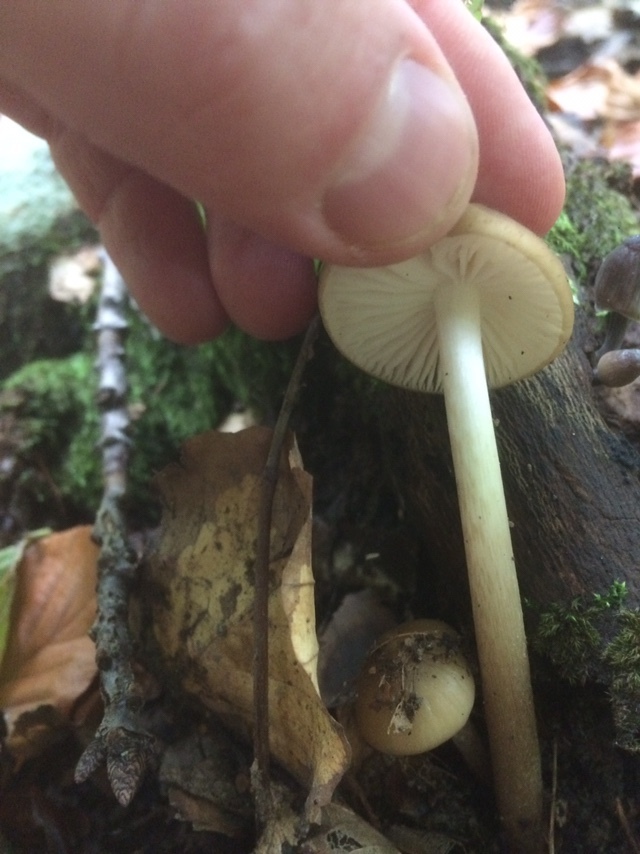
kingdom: Fungi
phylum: Basidiomycota
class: Agaricomycetes
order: Agaricales
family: Physalacriaceae
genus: Hymenopellis
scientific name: Hymenopellis radicata
